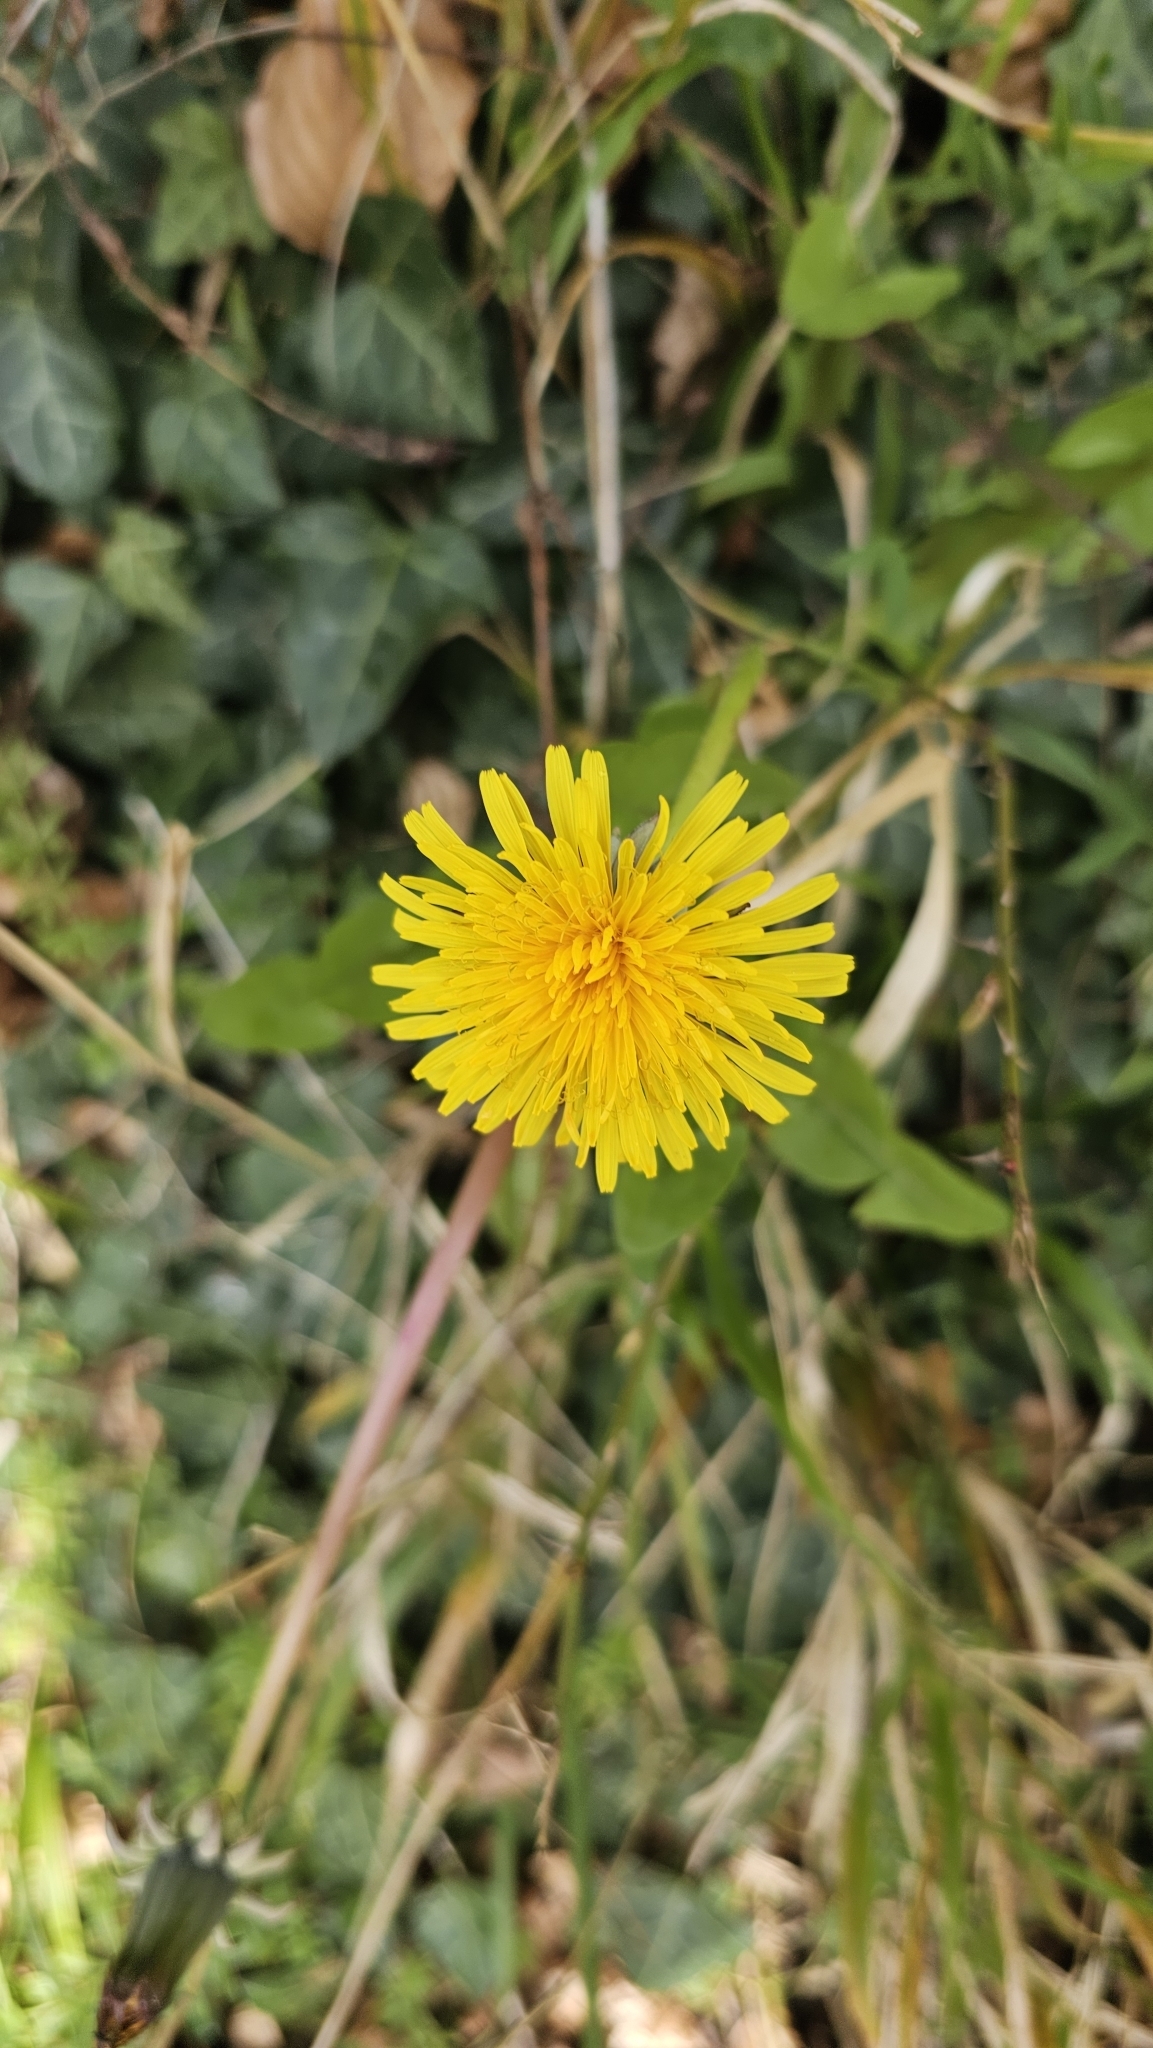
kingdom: Plantae
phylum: Tracheophyta
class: Magnoliopsida
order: Asterales
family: Asteraceae
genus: Taraxacum
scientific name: Taraxacum officinale
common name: Common dandelion
